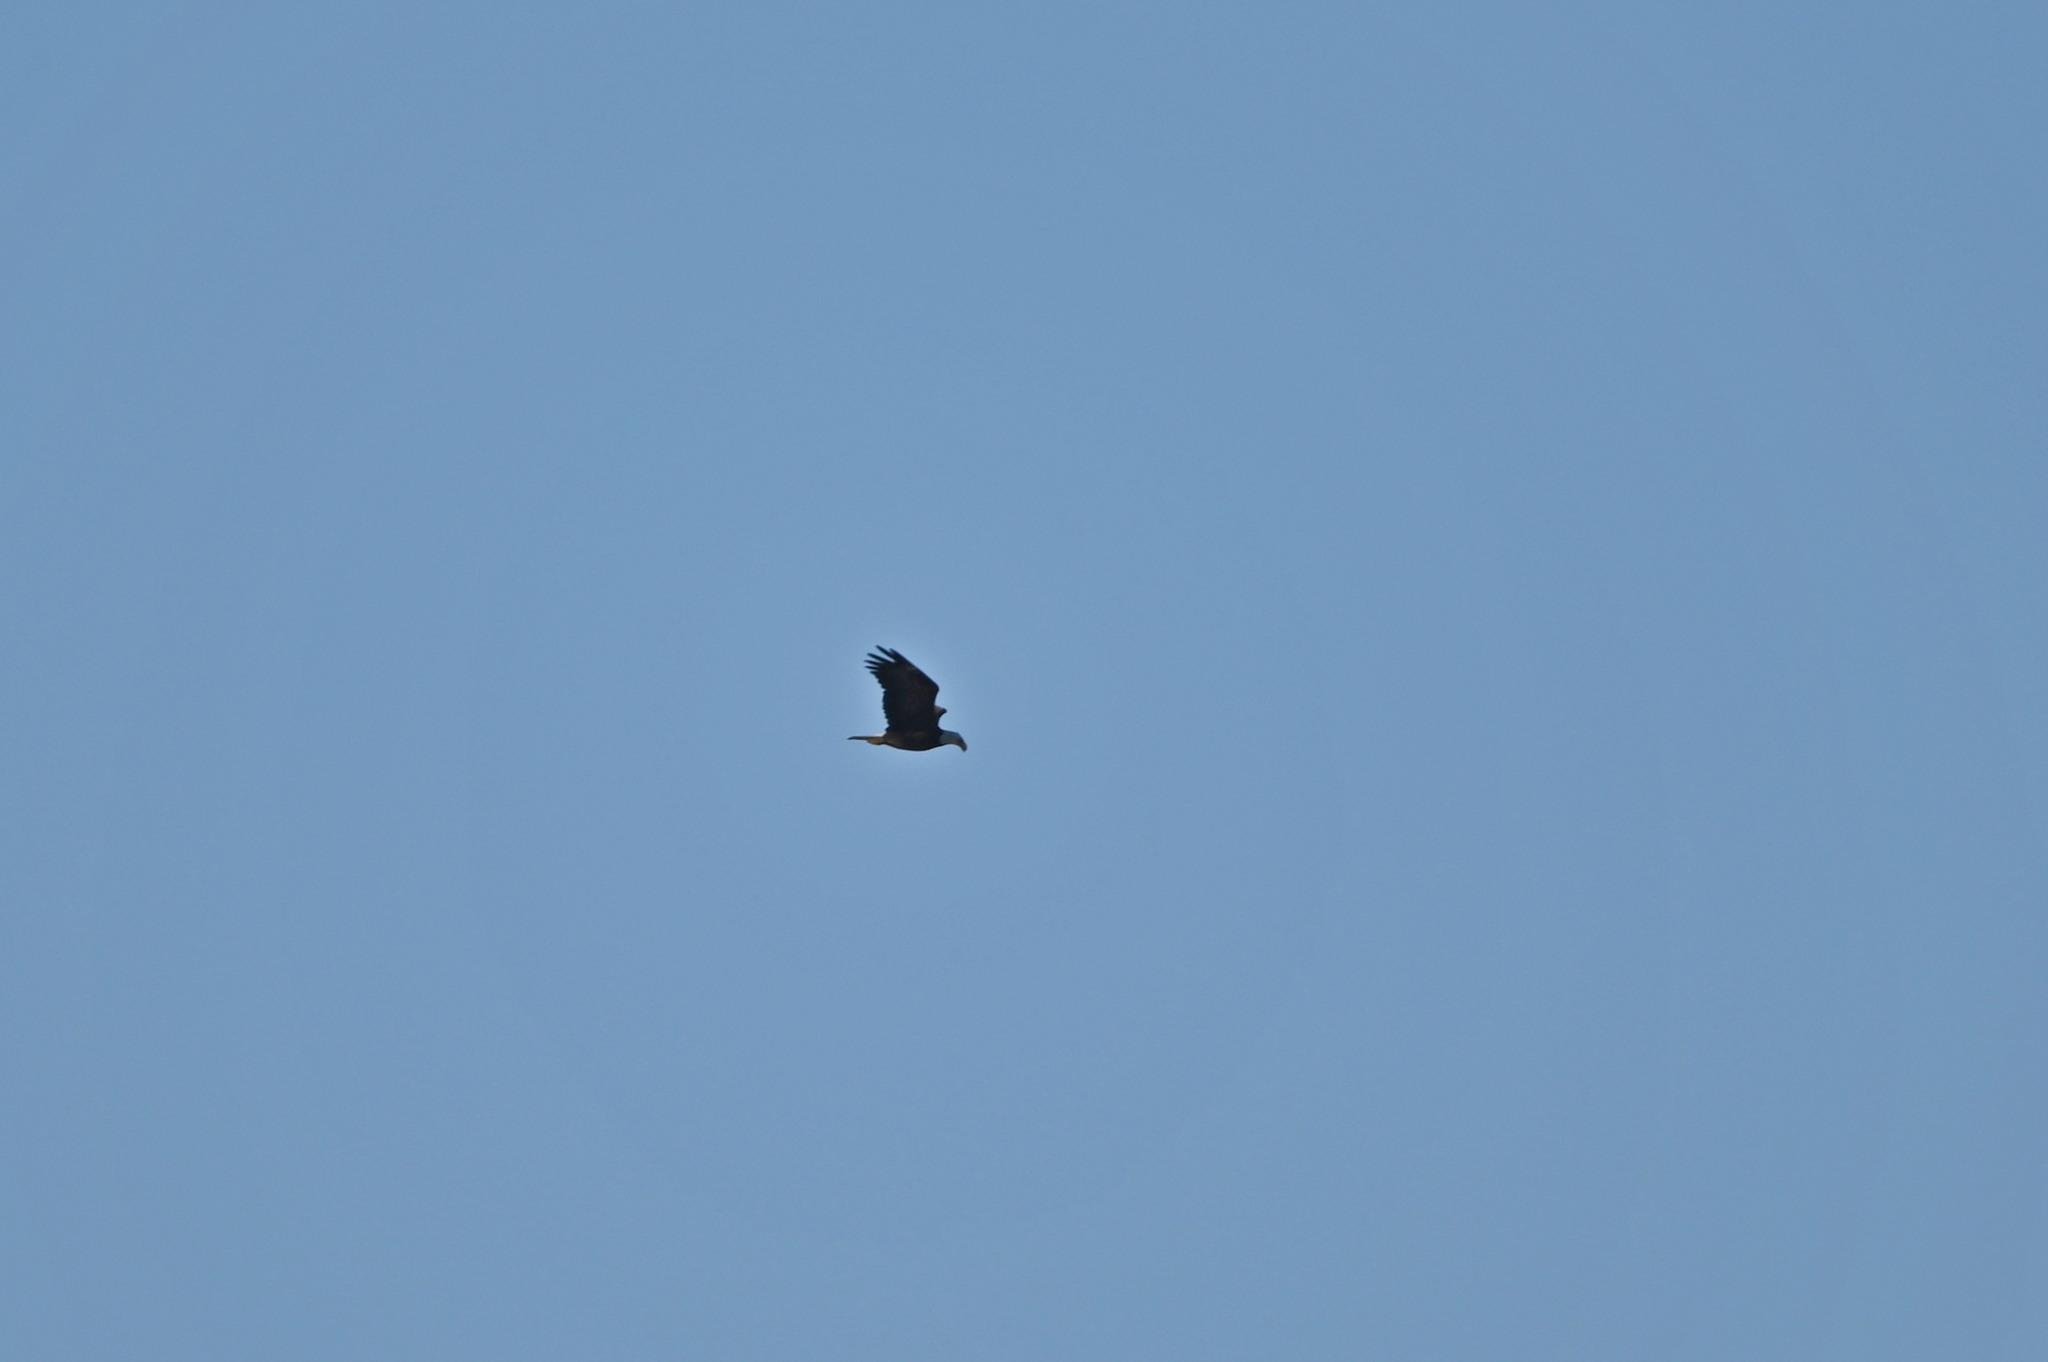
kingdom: Animalia
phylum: Chordata
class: Aves
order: Accipitriformes
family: Accipitridae
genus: Haliaeetus
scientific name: Haliaeetus leucocephalus
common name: Bald eagle
